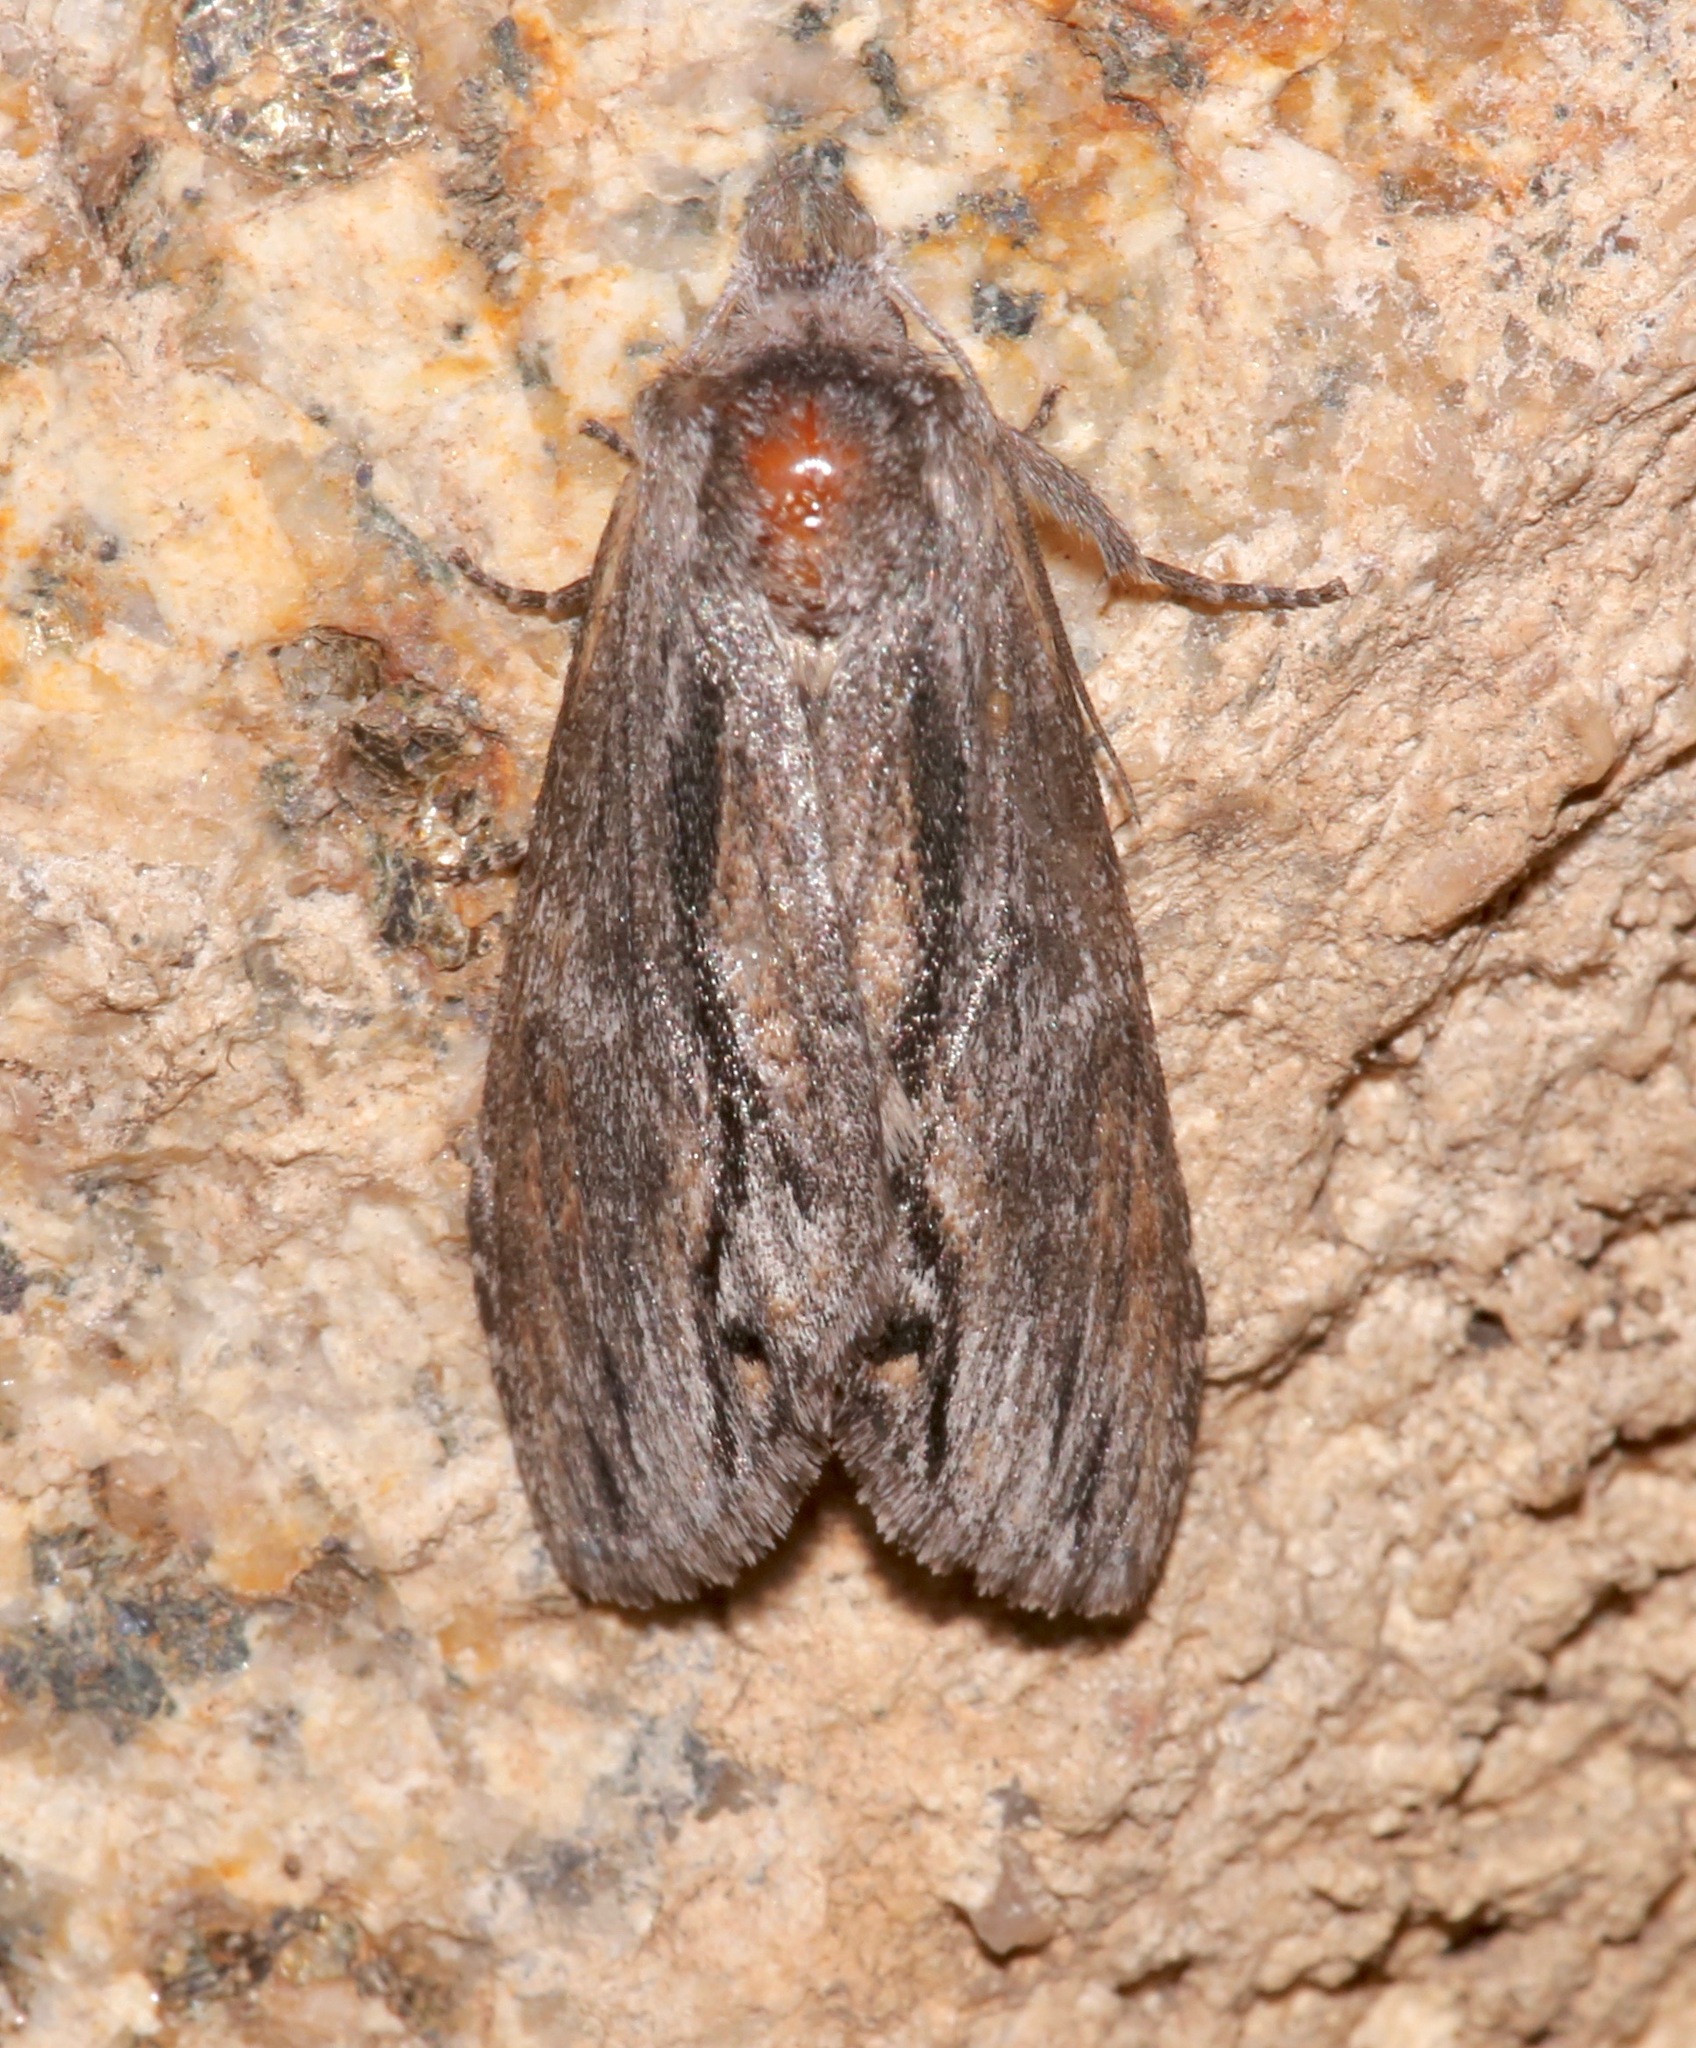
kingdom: Animalia
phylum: Arthropoda
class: Insecta
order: Lepidoptera
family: Notodontidae
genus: Notela
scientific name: Notela jaliscana
